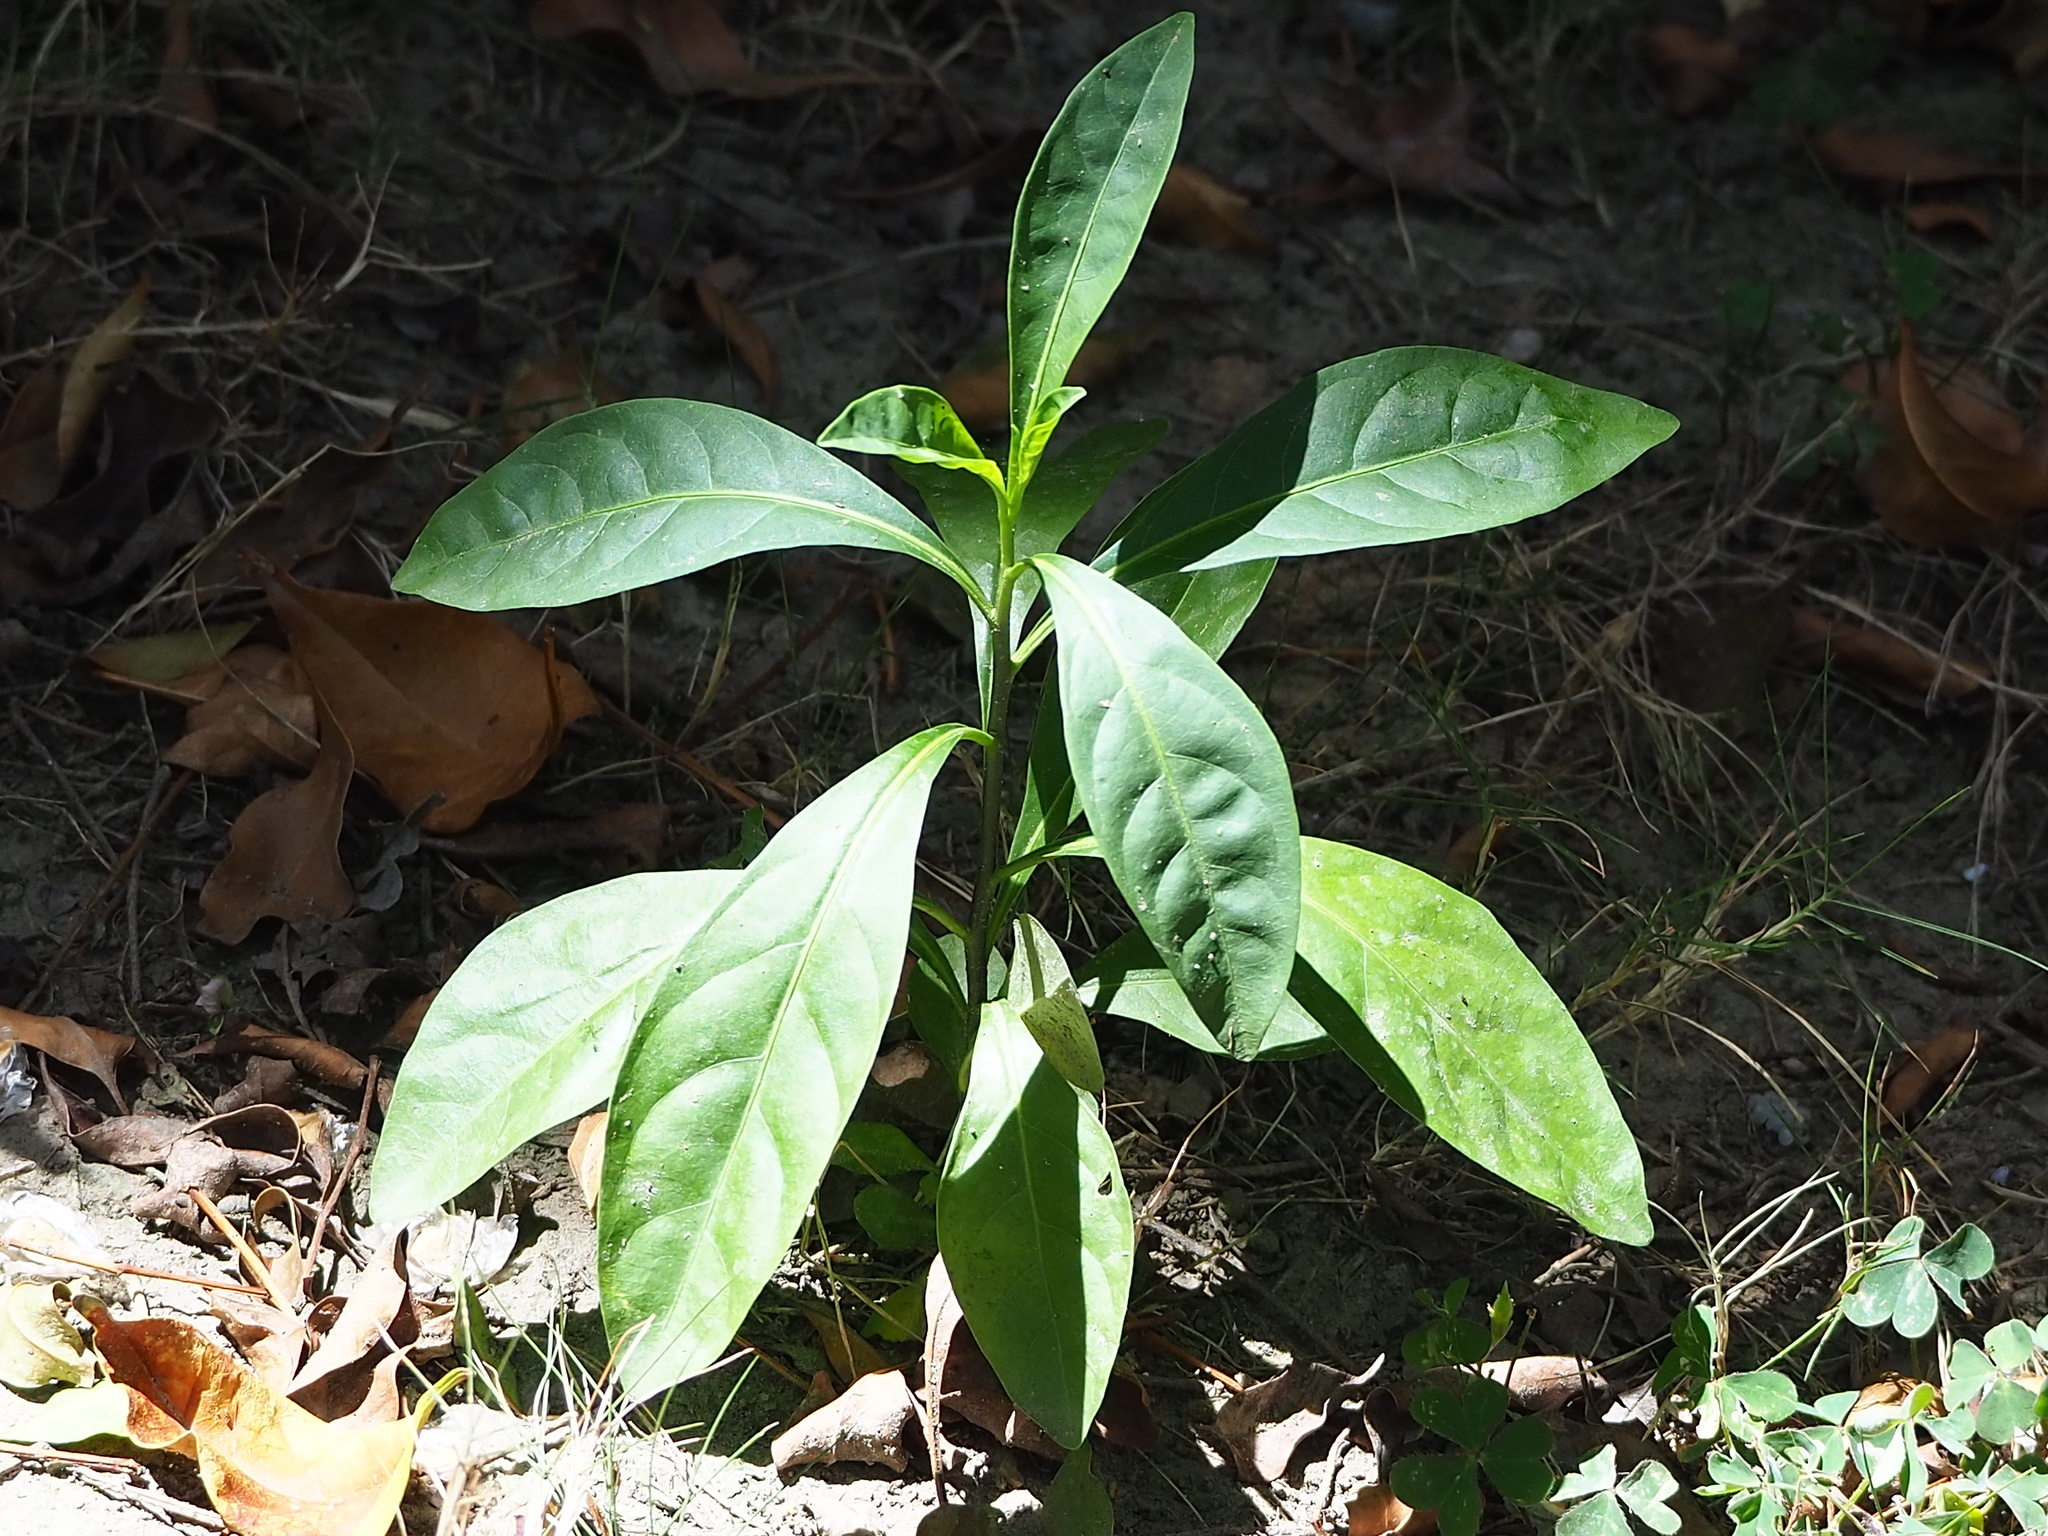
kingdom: Plantae
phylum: Tracheophyta
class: Magnoliopsida
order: Solanales
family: Solanaceae
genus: Solanum
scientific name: Solanum diphyllum
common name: Twoleaf nightshade
